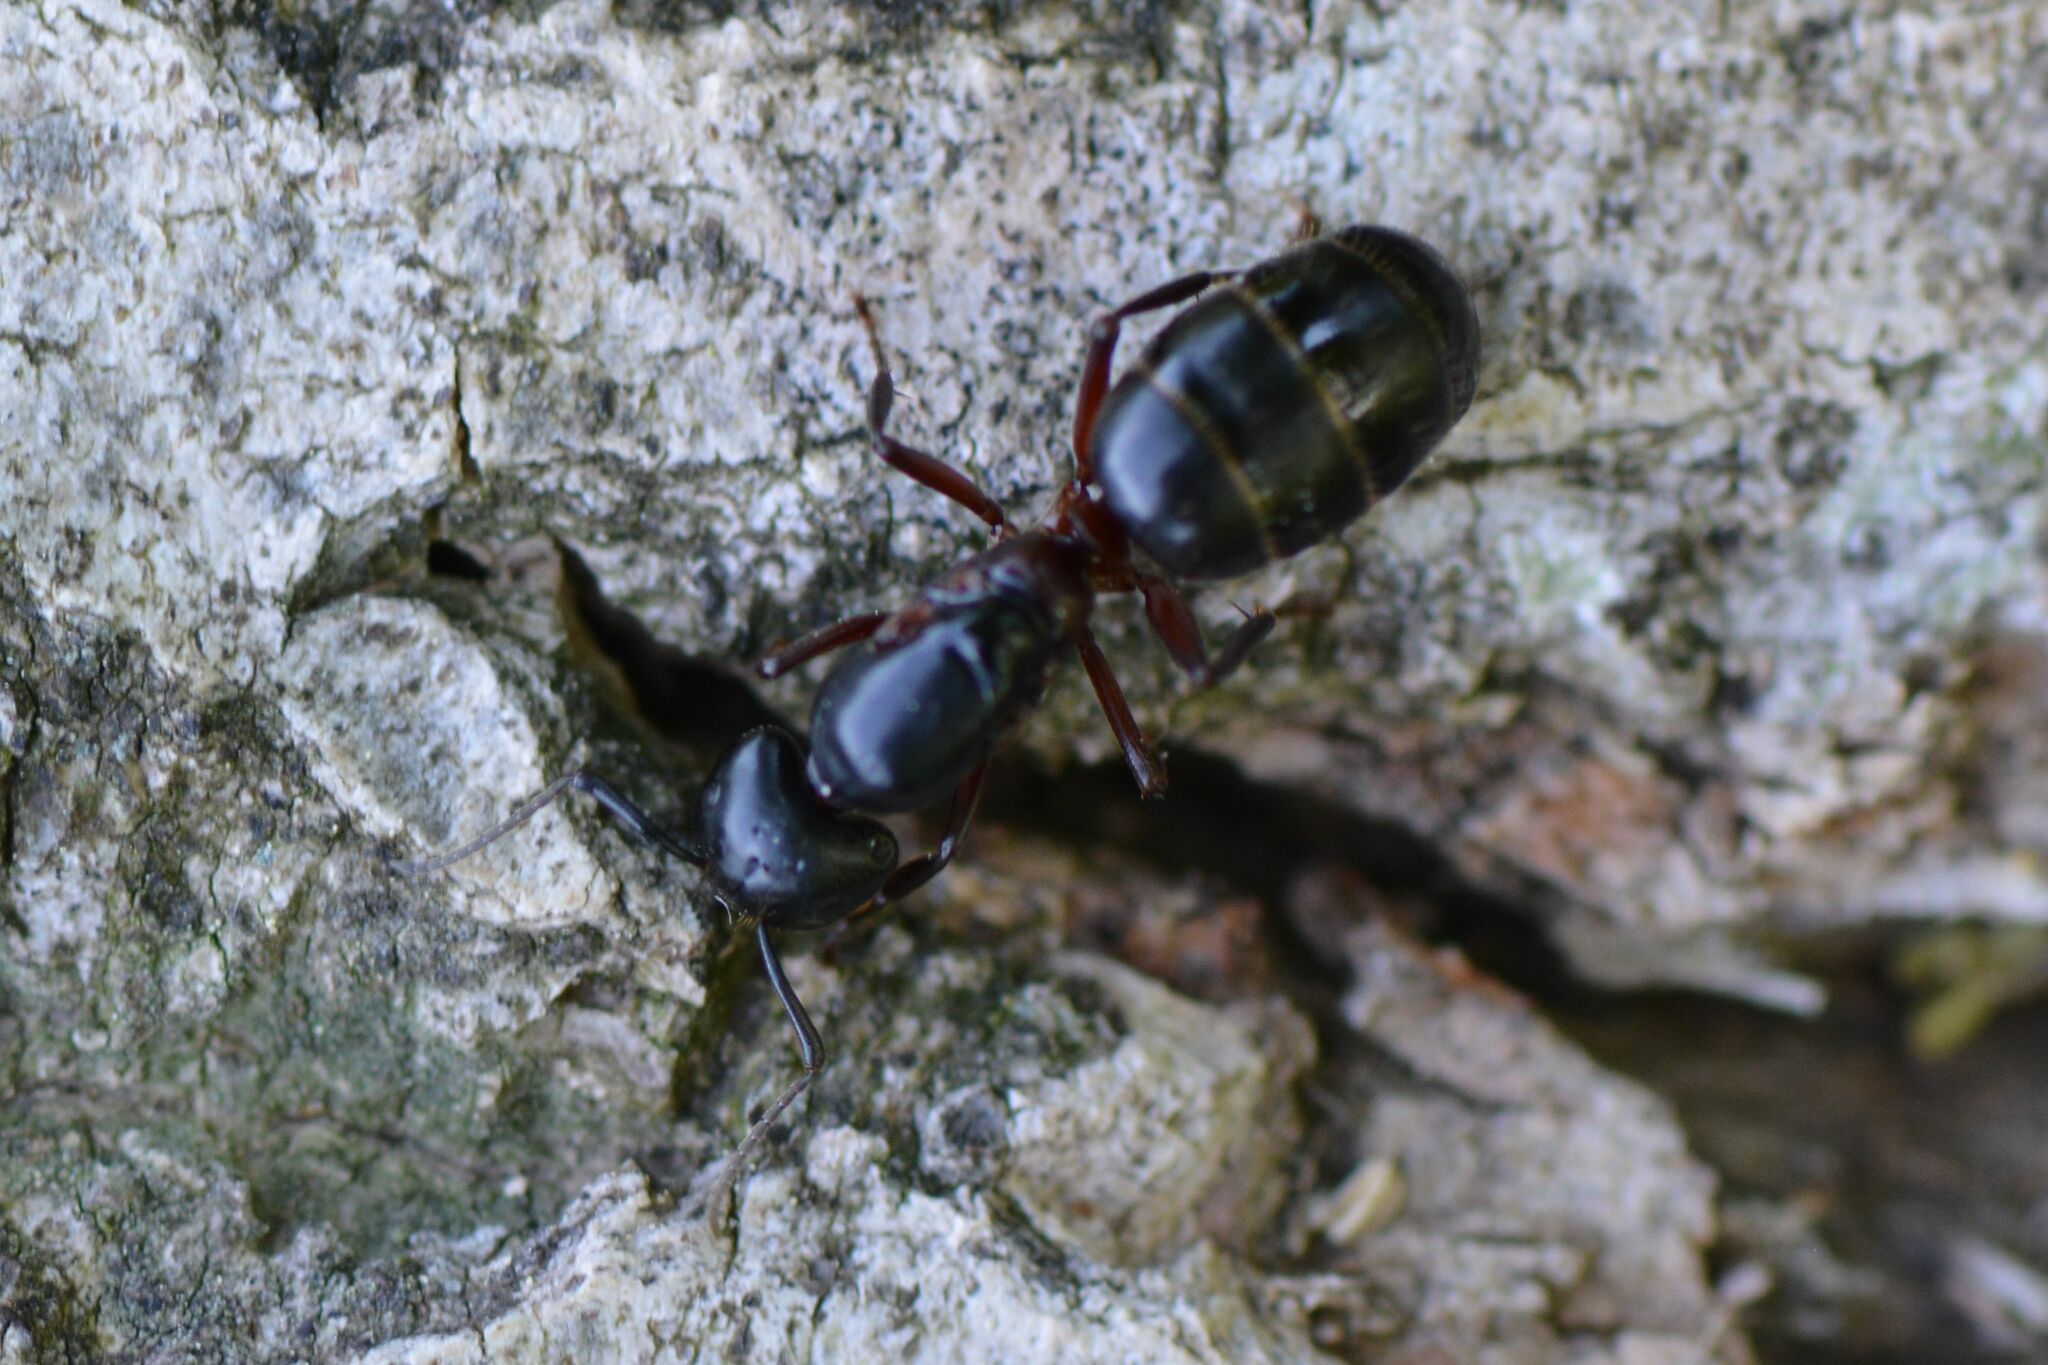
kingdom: Animalia
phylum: Arthropoda
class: Insecta
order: Hymenoptera
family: Formicidae
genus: Camponotus
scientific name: Camponotus herculeanus
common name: Hercules ant
